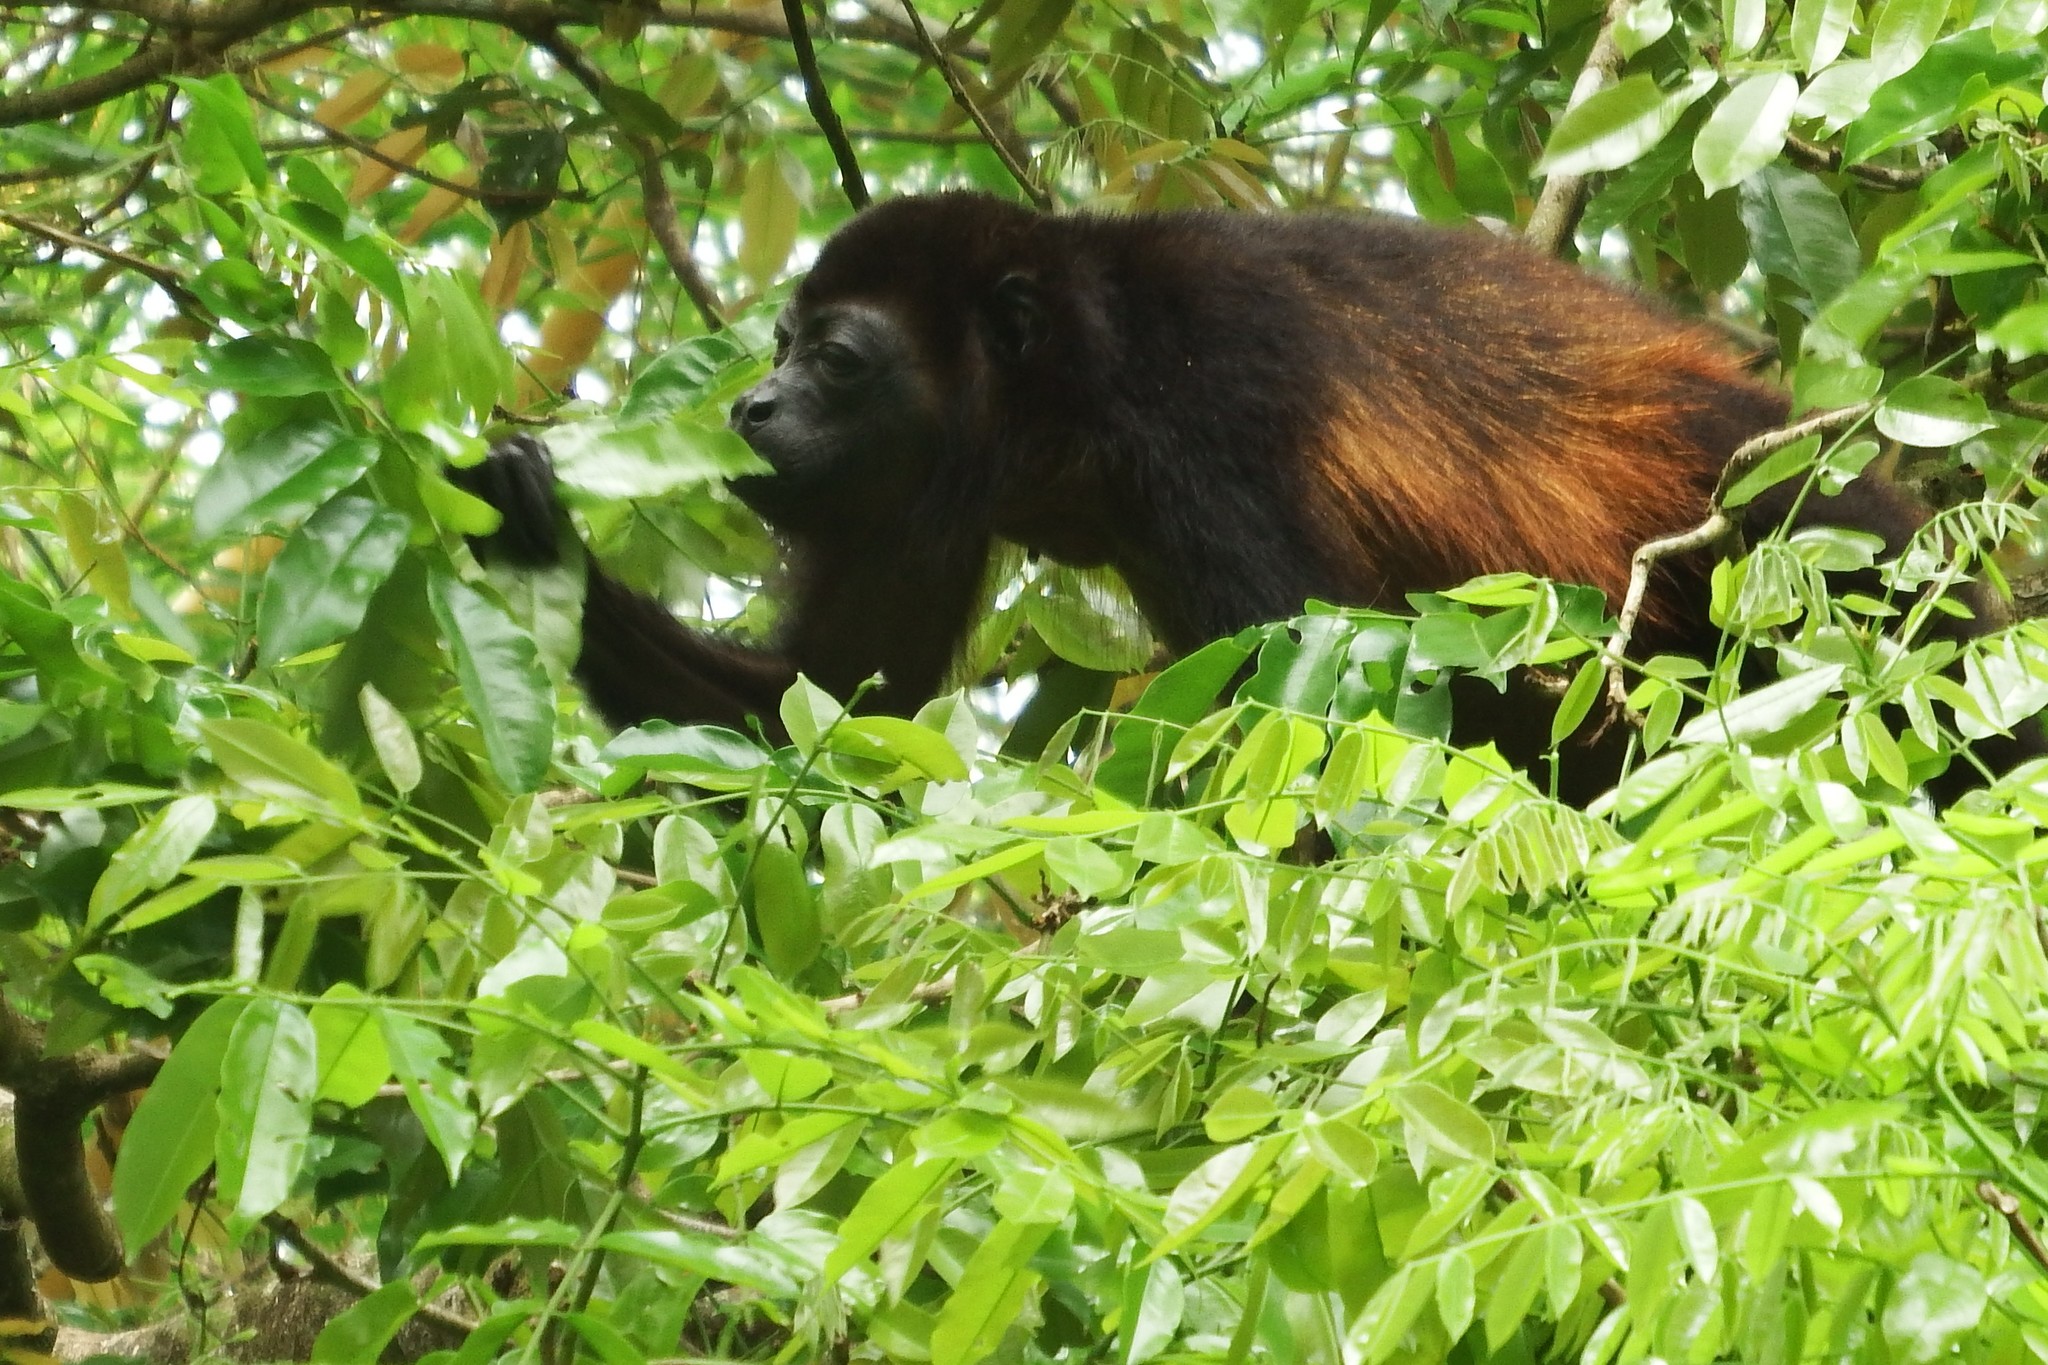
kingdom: Animalia
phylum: Chordata
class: Mammalia
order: Primates
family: Atelidae
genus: Alouatta
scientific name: Alouatta palliata
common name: Mantled howler
